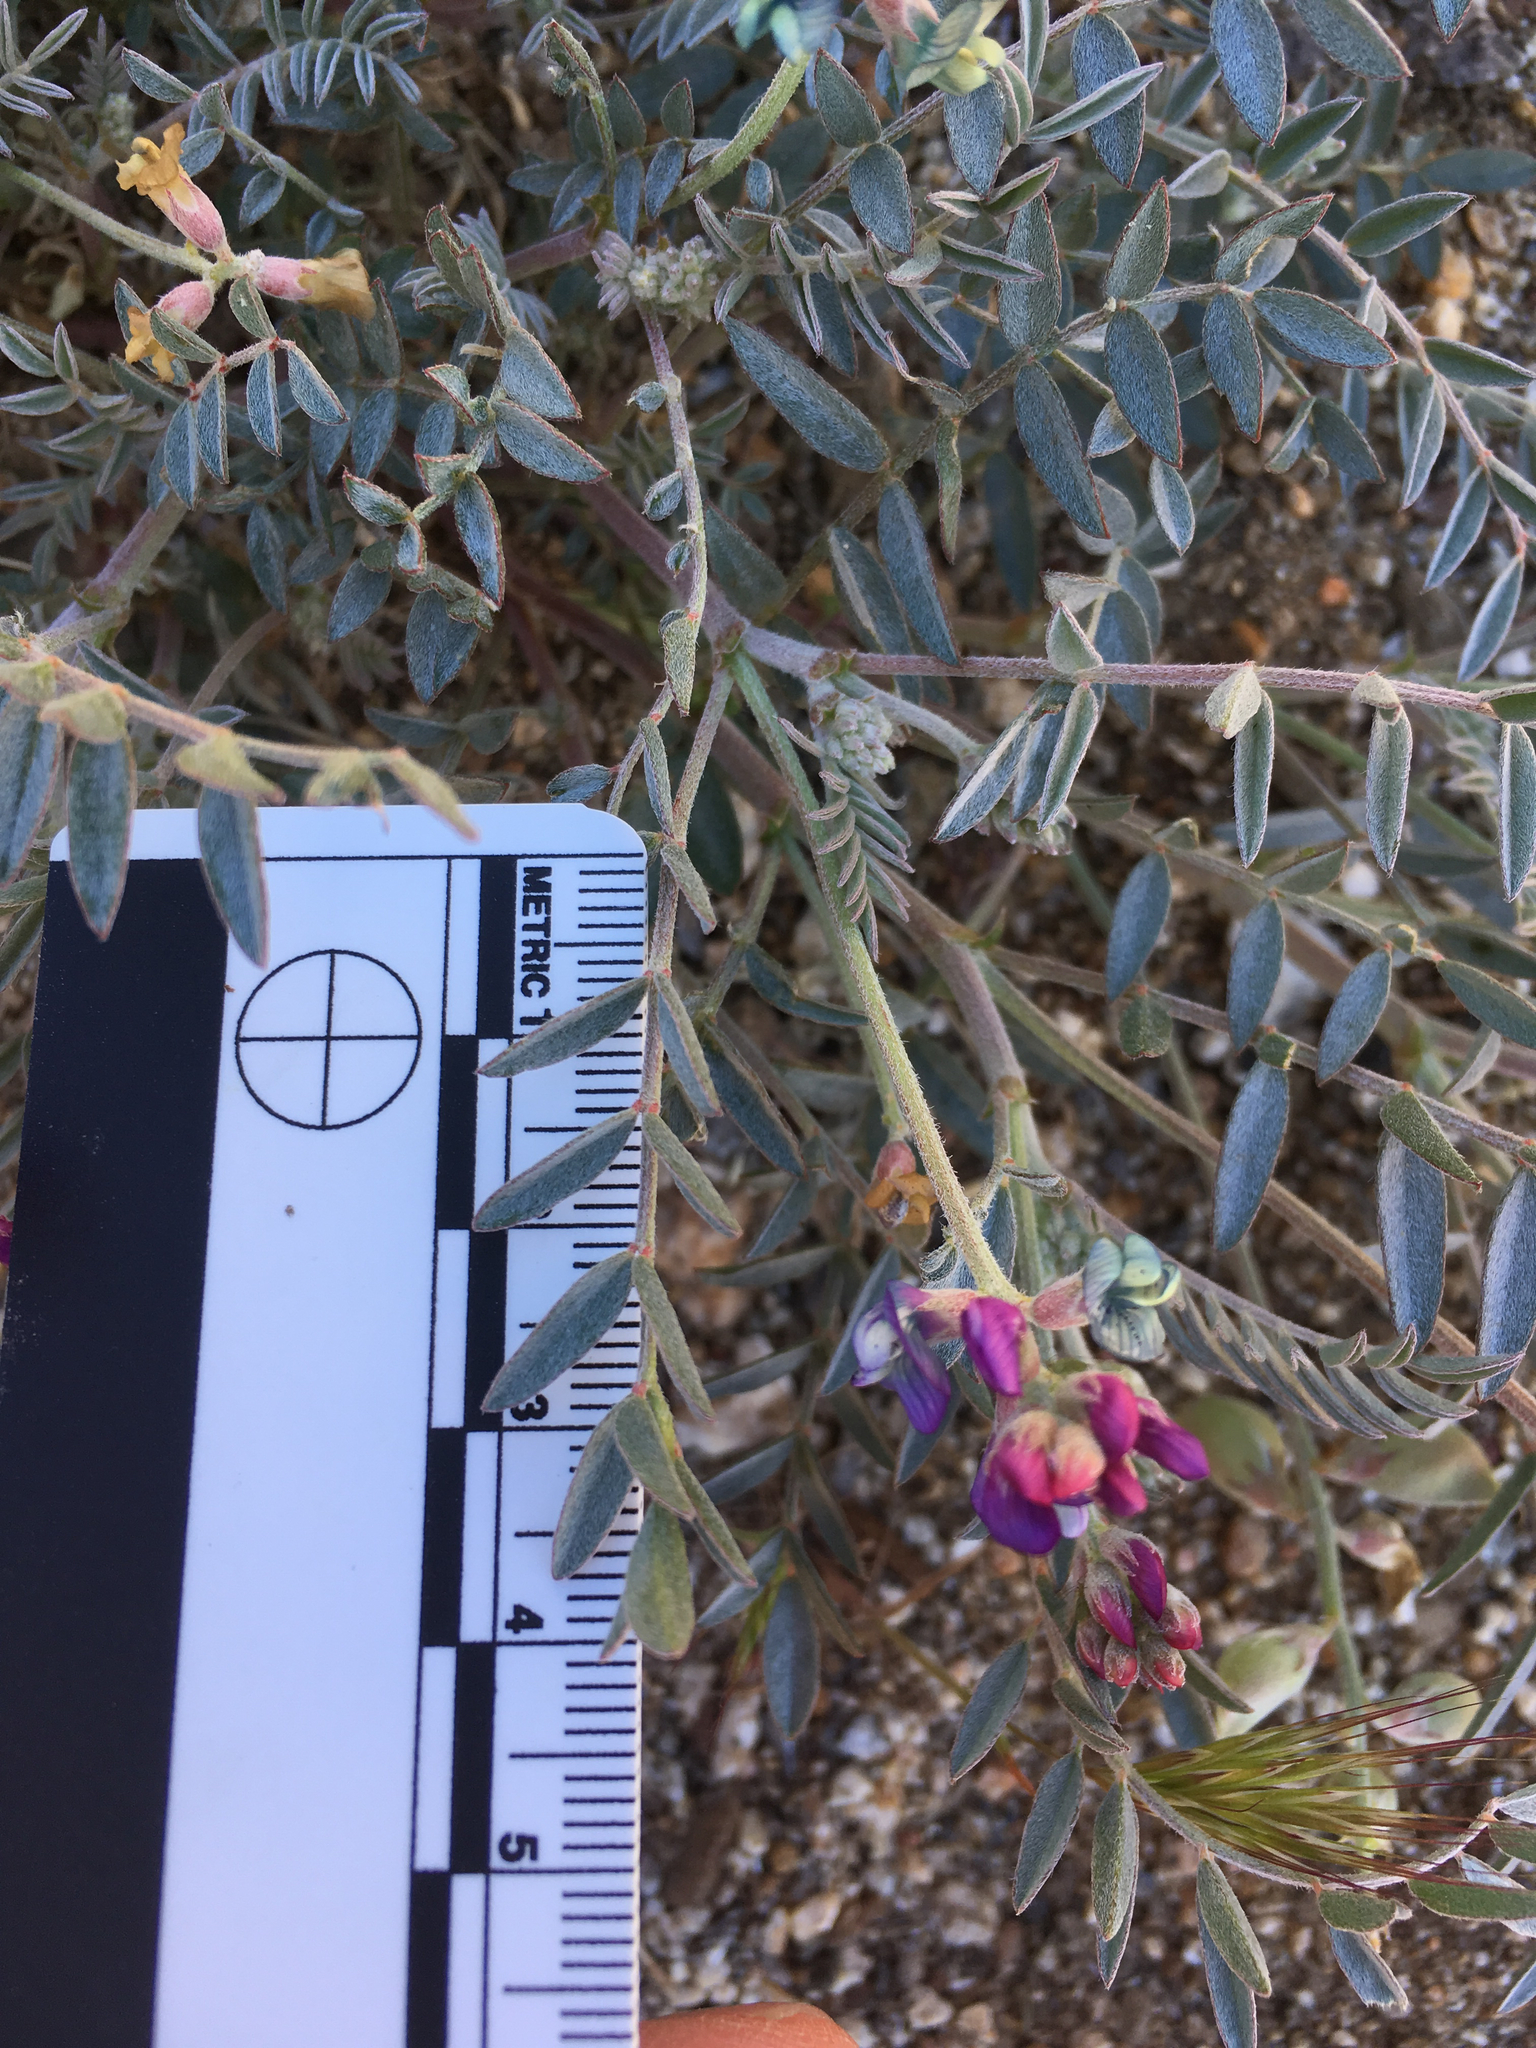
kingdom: Plantae
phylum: Tracheophyta
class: Magnoliopsida
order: Fabales
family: Fabaceae
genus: Astragalus
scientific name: Astragalus palmeri
